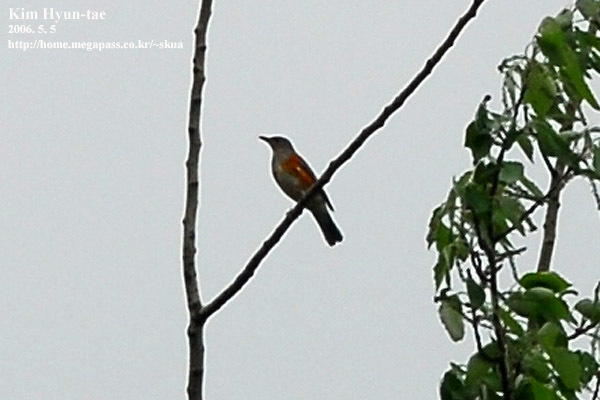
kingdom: Animalia
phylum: Chordata
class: Aves
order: Passeriformes
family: Turdidae
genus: Turdus
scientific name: Turdus hortulorum
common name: Grey-backed thrush
